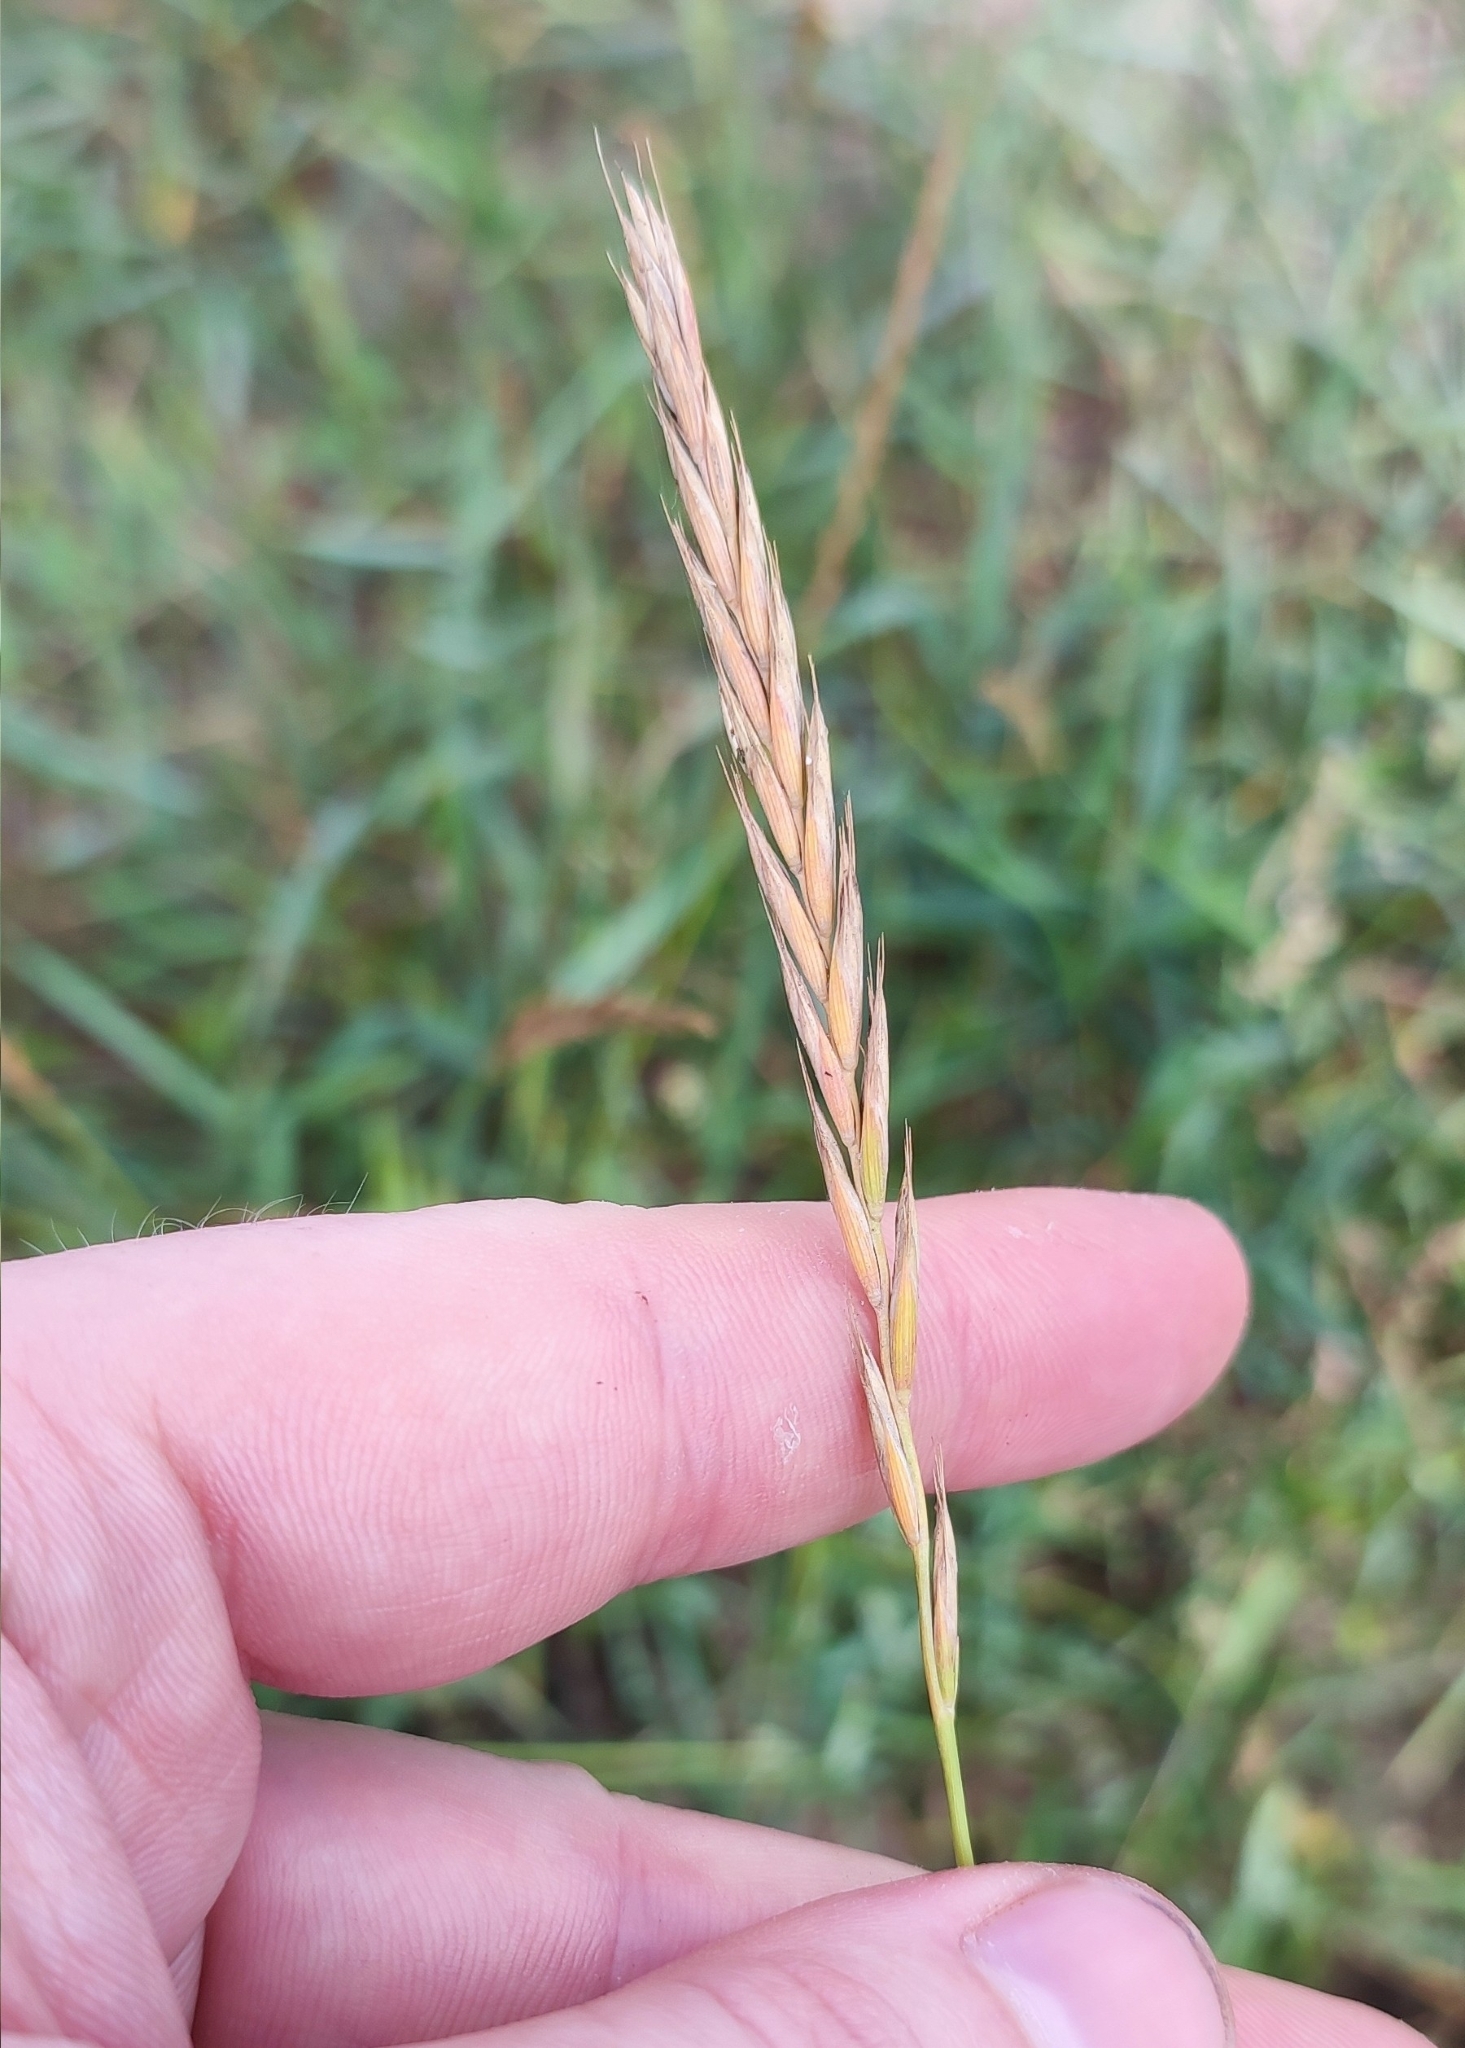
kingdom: Plantae
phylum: Tracheophyta
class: Liliopsida
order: Poales
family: Poaceae
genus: Elymus
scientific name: Elymus repens
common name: Quackgrass
